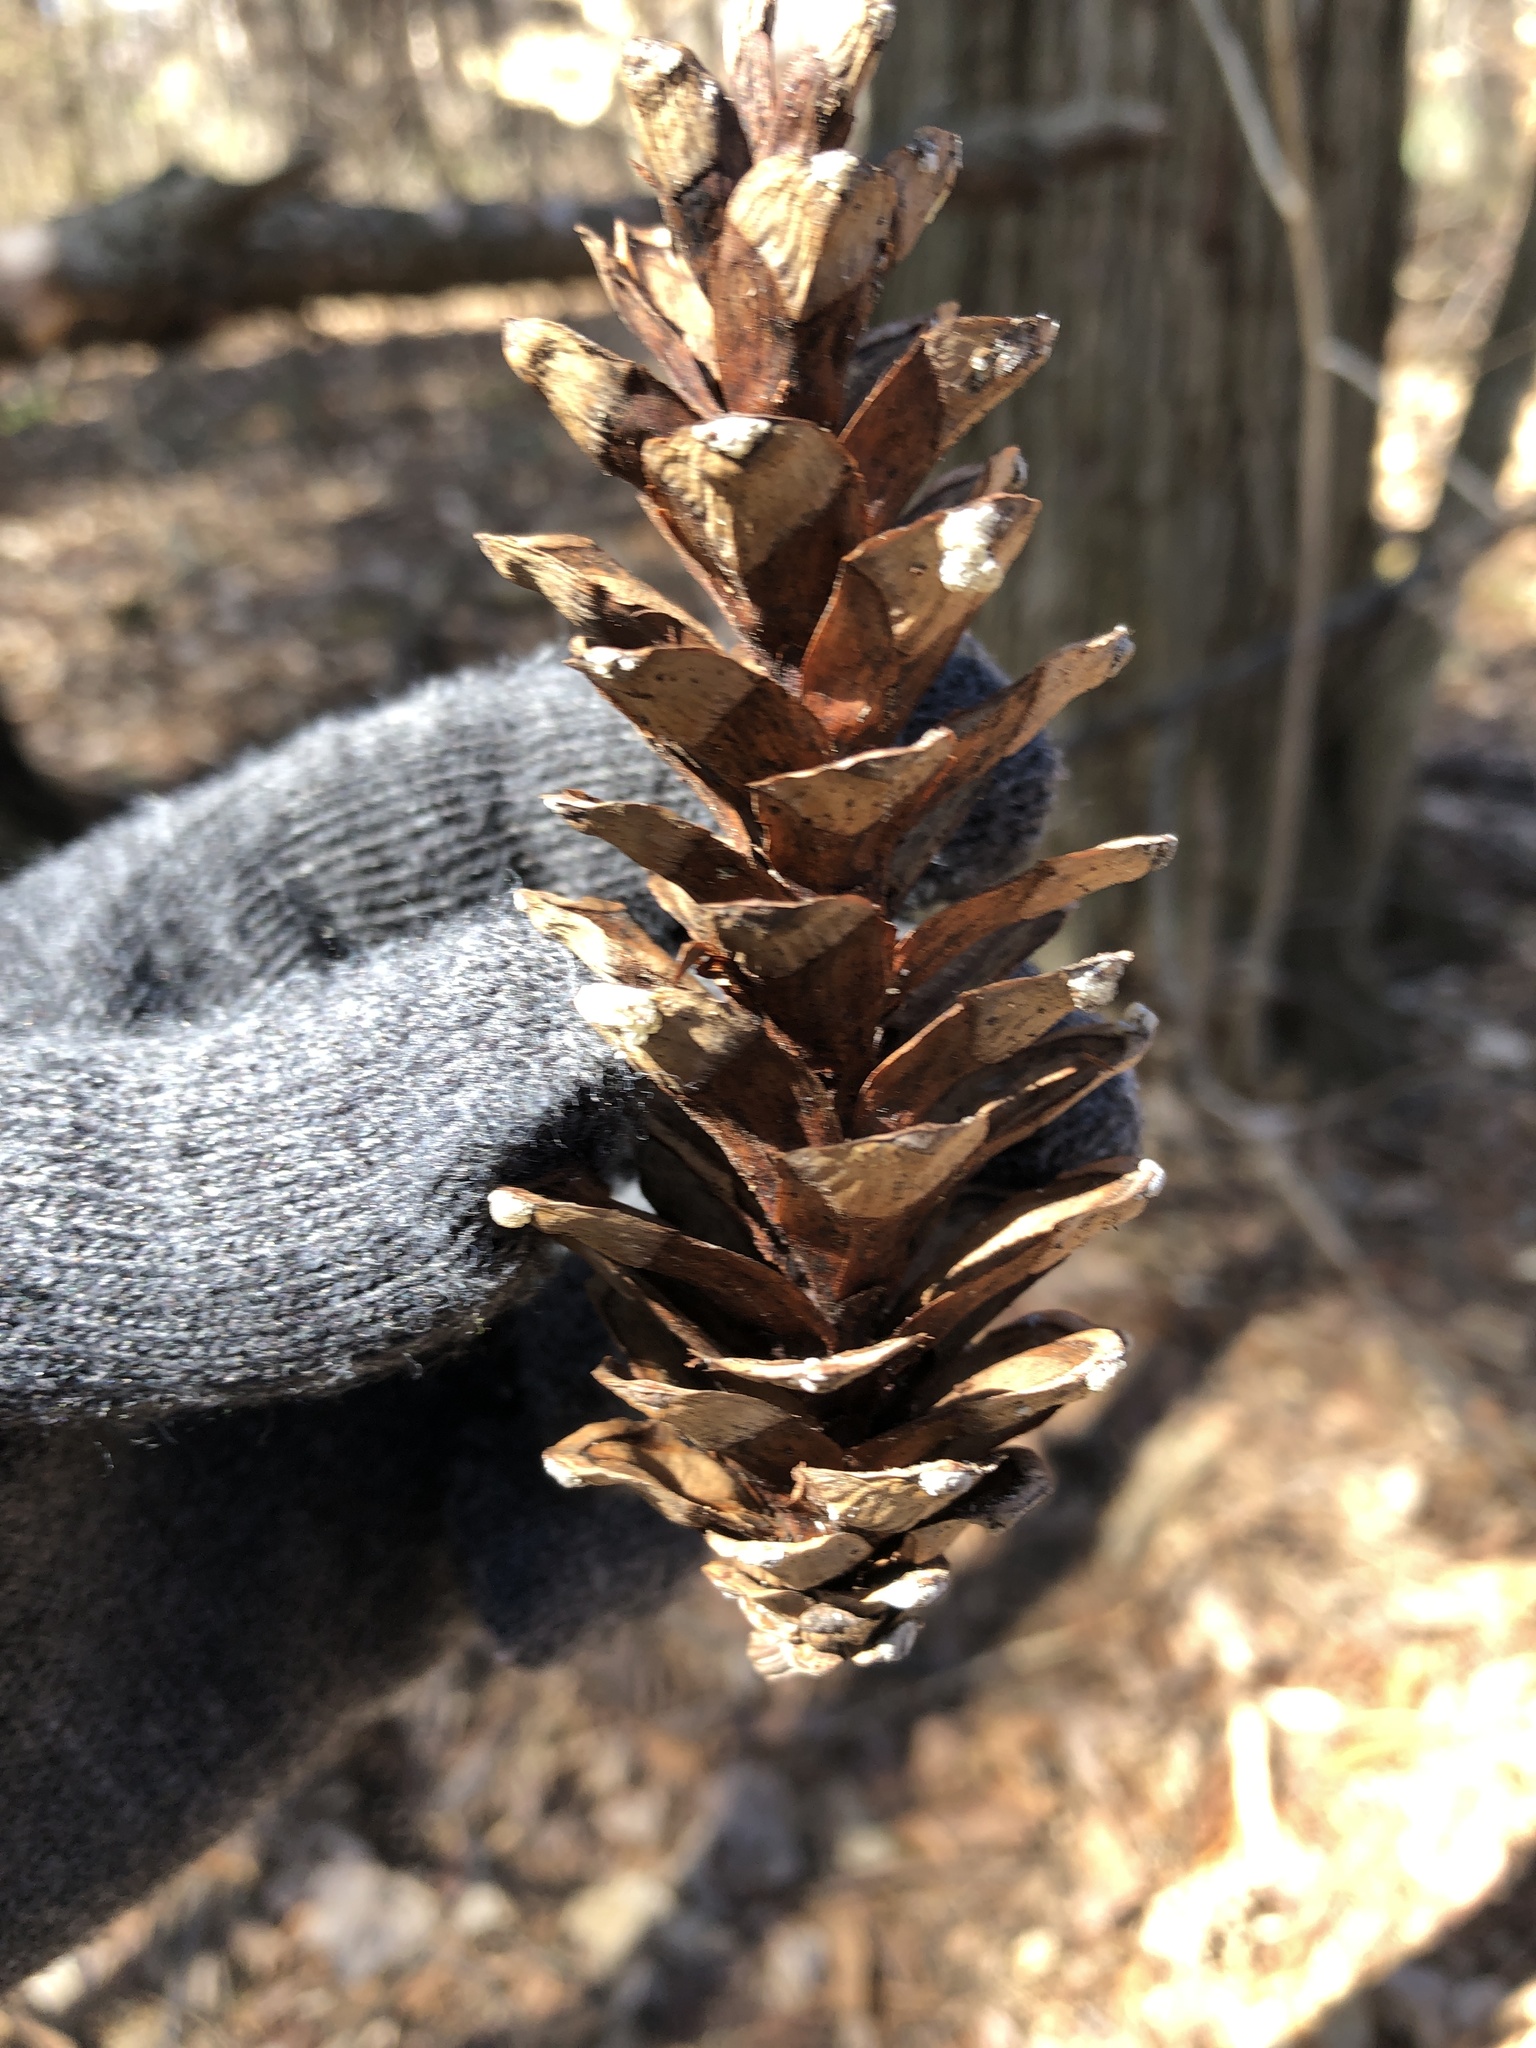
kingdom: Plantae
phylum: Tracheophyta
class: Pinopsida
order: Pinales
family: Pinaceae
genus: Pinus
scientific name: Pinus strobus
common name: Weymouth pine
